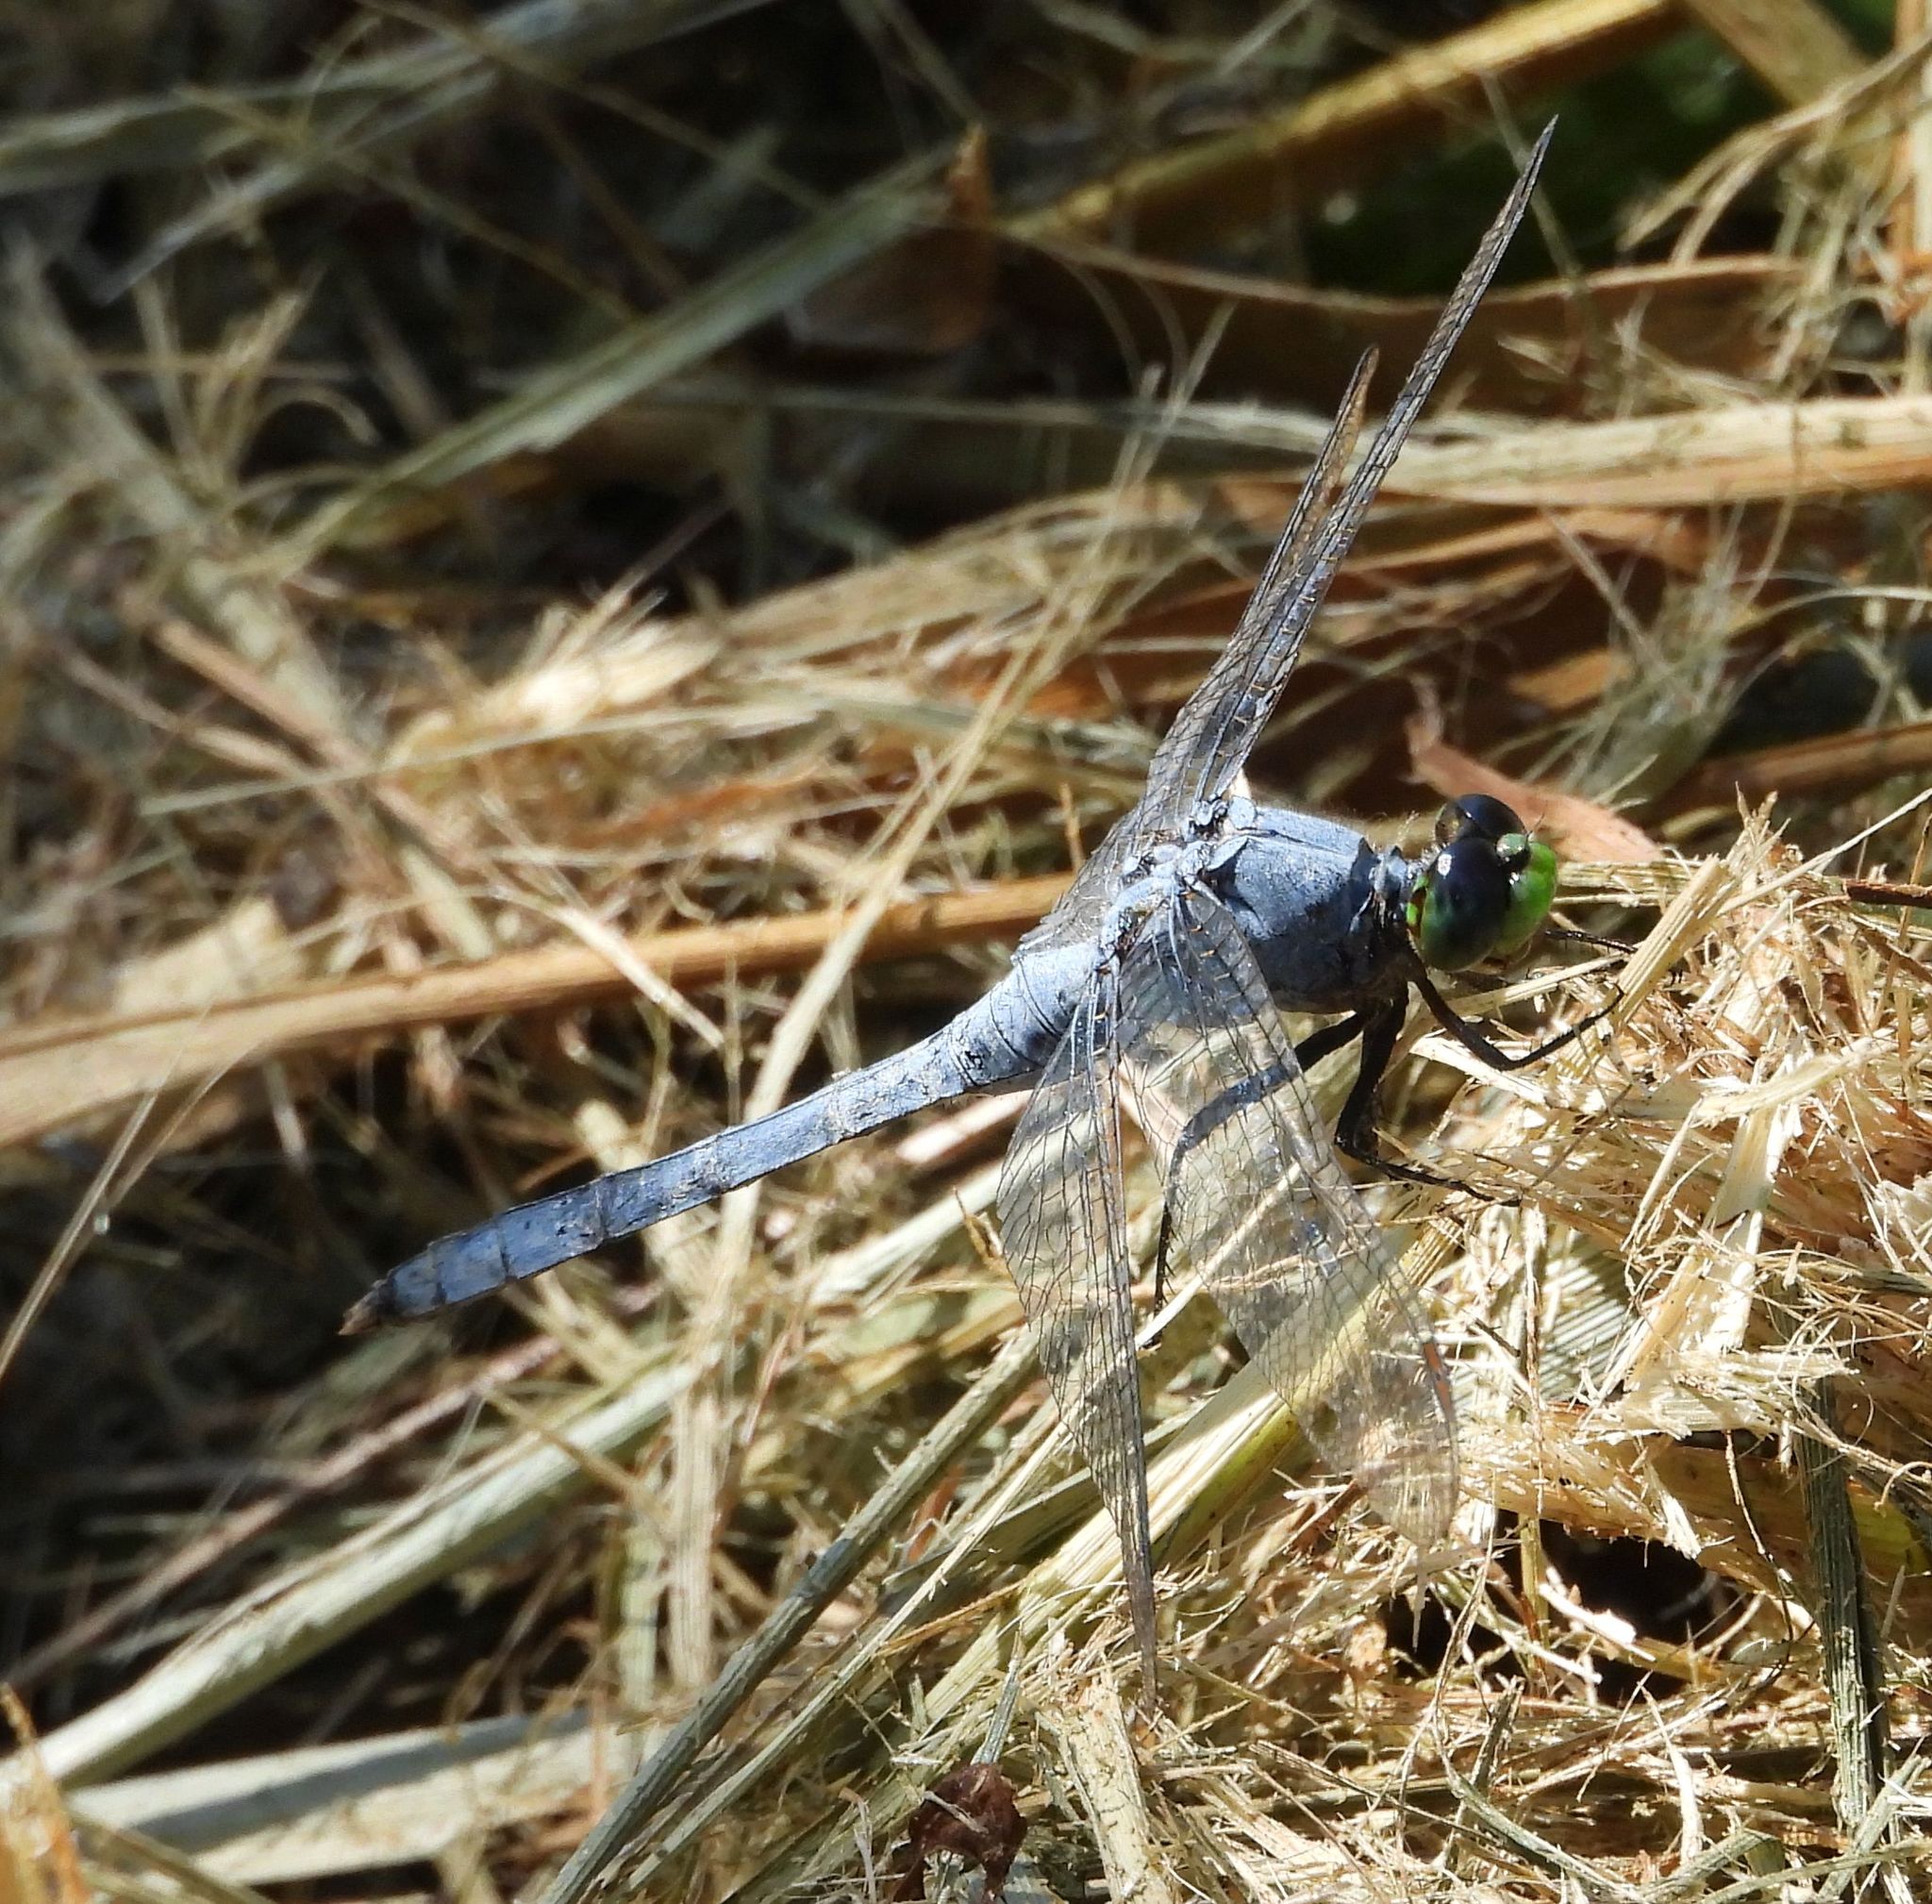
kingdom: Animalia
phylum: Arthropoda
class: Insecta
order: Odonata
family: Libellulidae
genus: Erythemis
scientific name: Erythemis simplicicollis
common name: Eastern pondhawk
